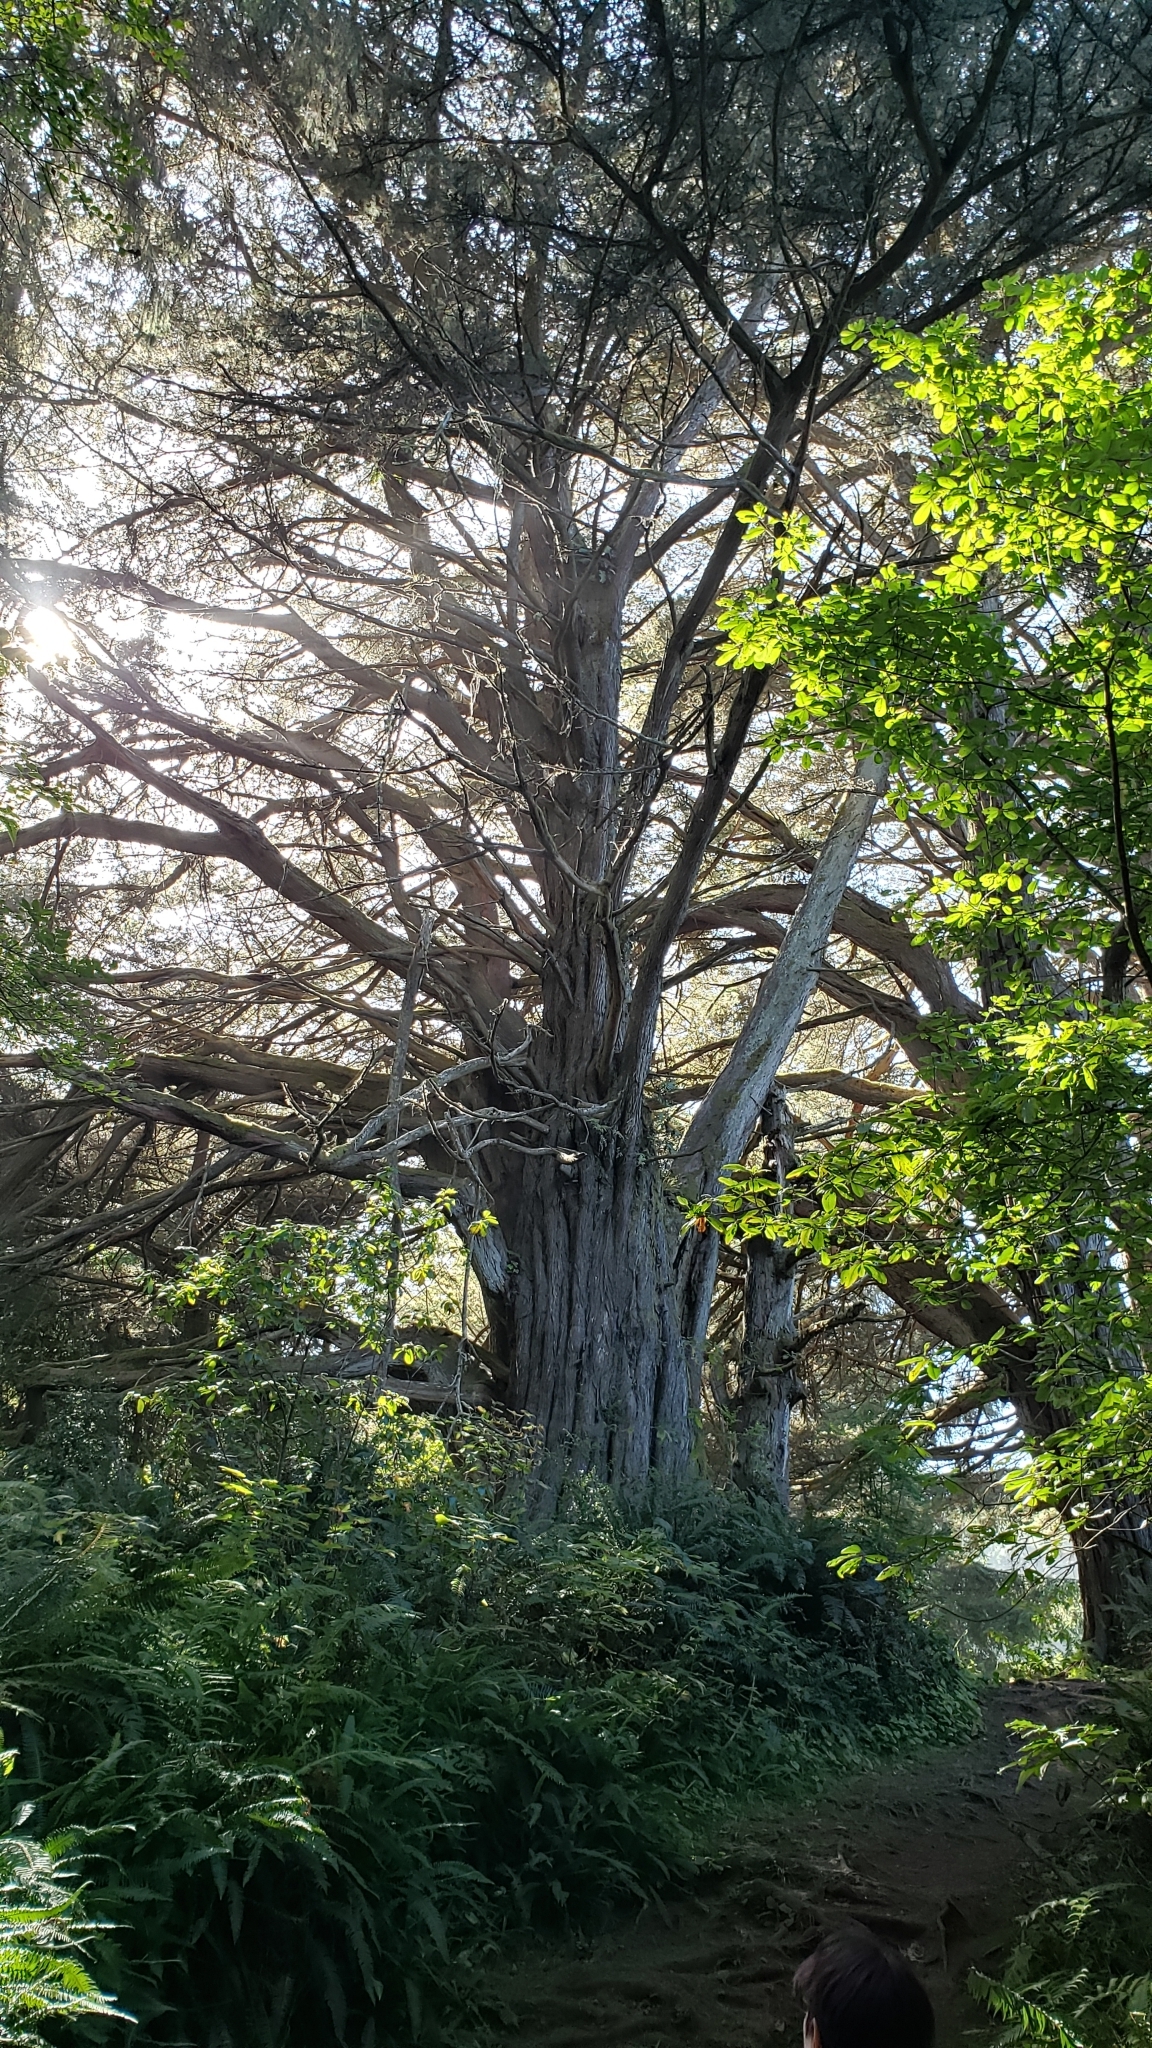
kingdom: Plantae
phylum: Tracheophyta
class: Pinopsida
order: Pinales
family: Cupressaceae
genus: Cupressus
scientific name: Cupressus macrocarpa
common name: Monterey cypress
